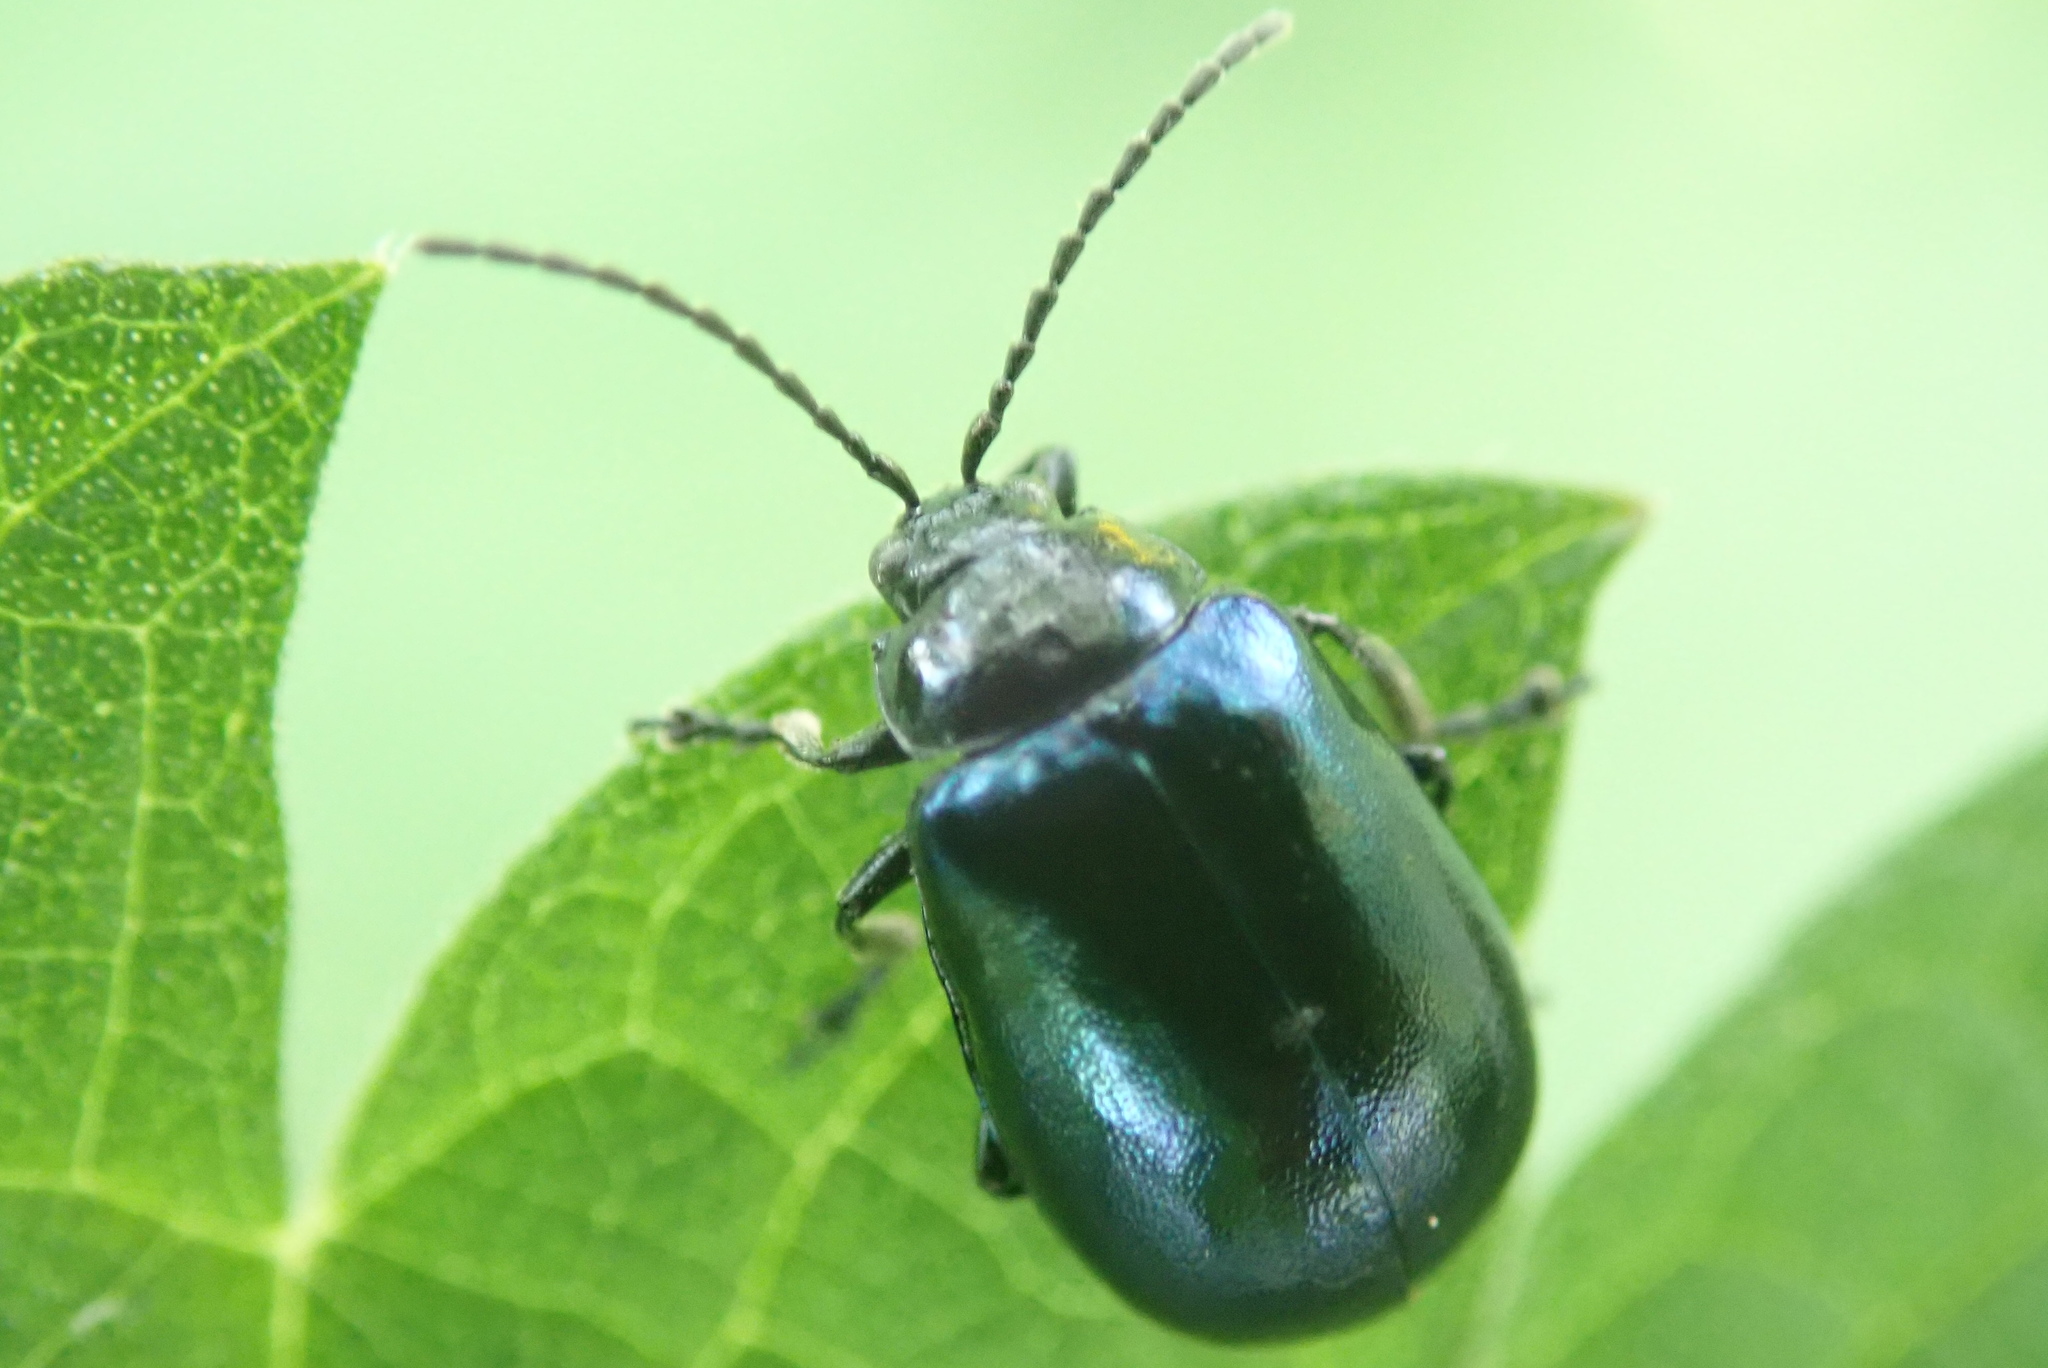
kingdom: Animalia
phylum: Arthropoda
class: Insecta
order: Coleoptera
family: Chrysomelidae
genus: Agelastica
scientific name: Agelastica alni
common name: Alder leaf beetle
